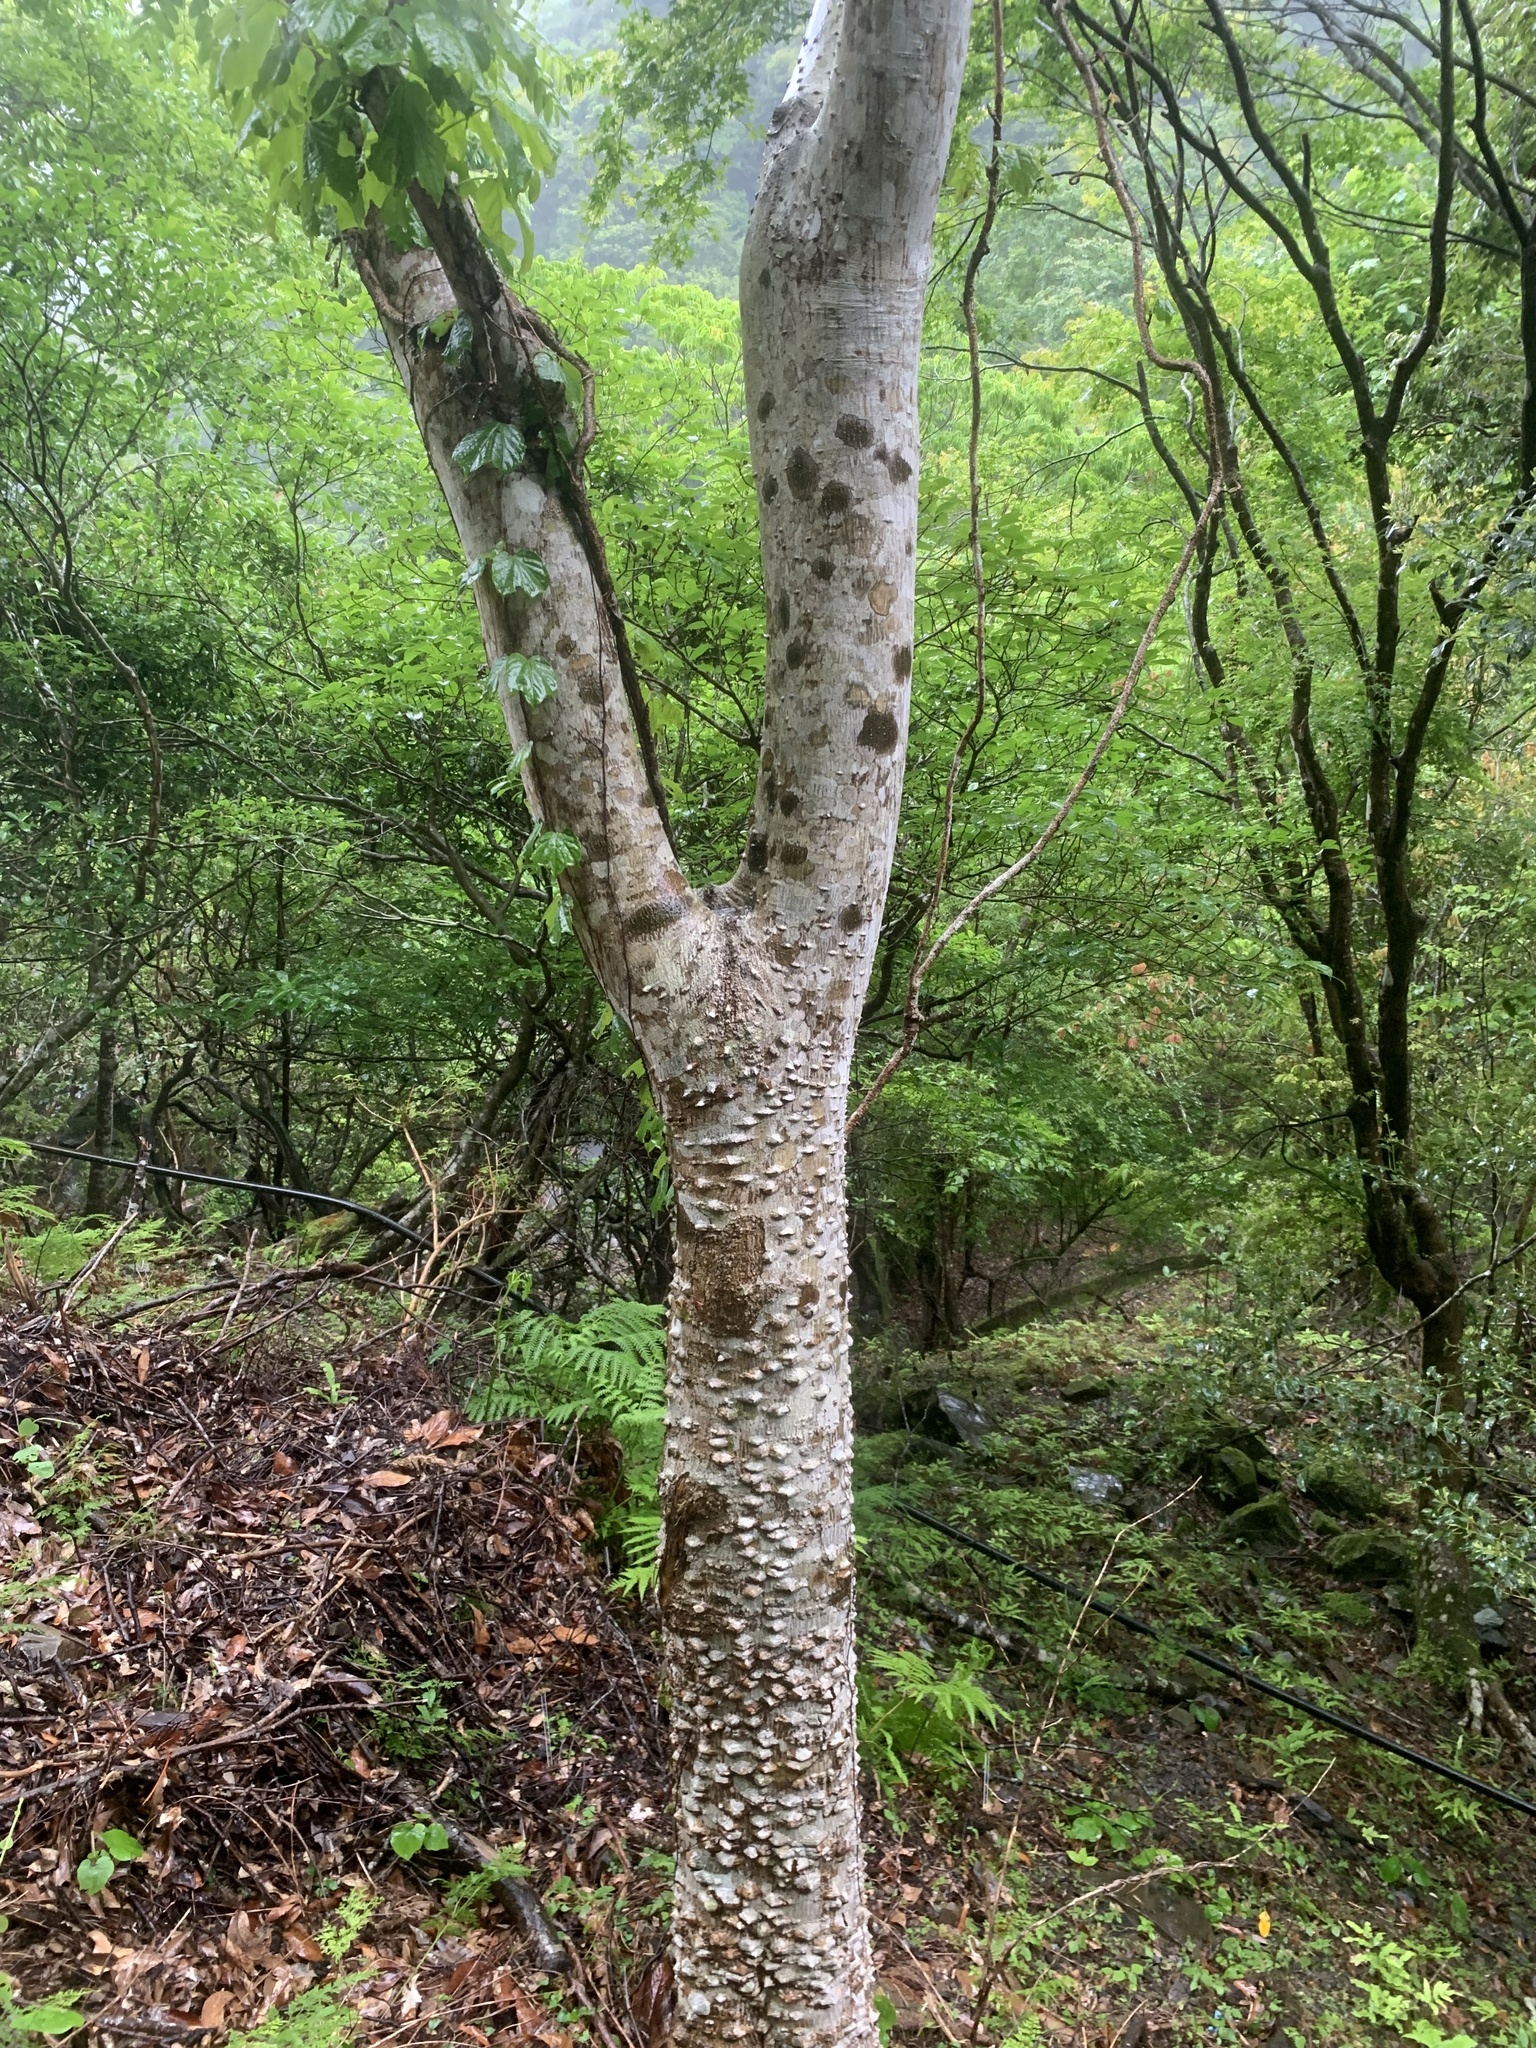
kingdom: Plantae
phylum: Tracheophyta
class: Magnoliopsida
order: Sapindales
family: Rutaceae
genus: Zanthoxylum
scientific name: Zanthoxylum ailanthoides
